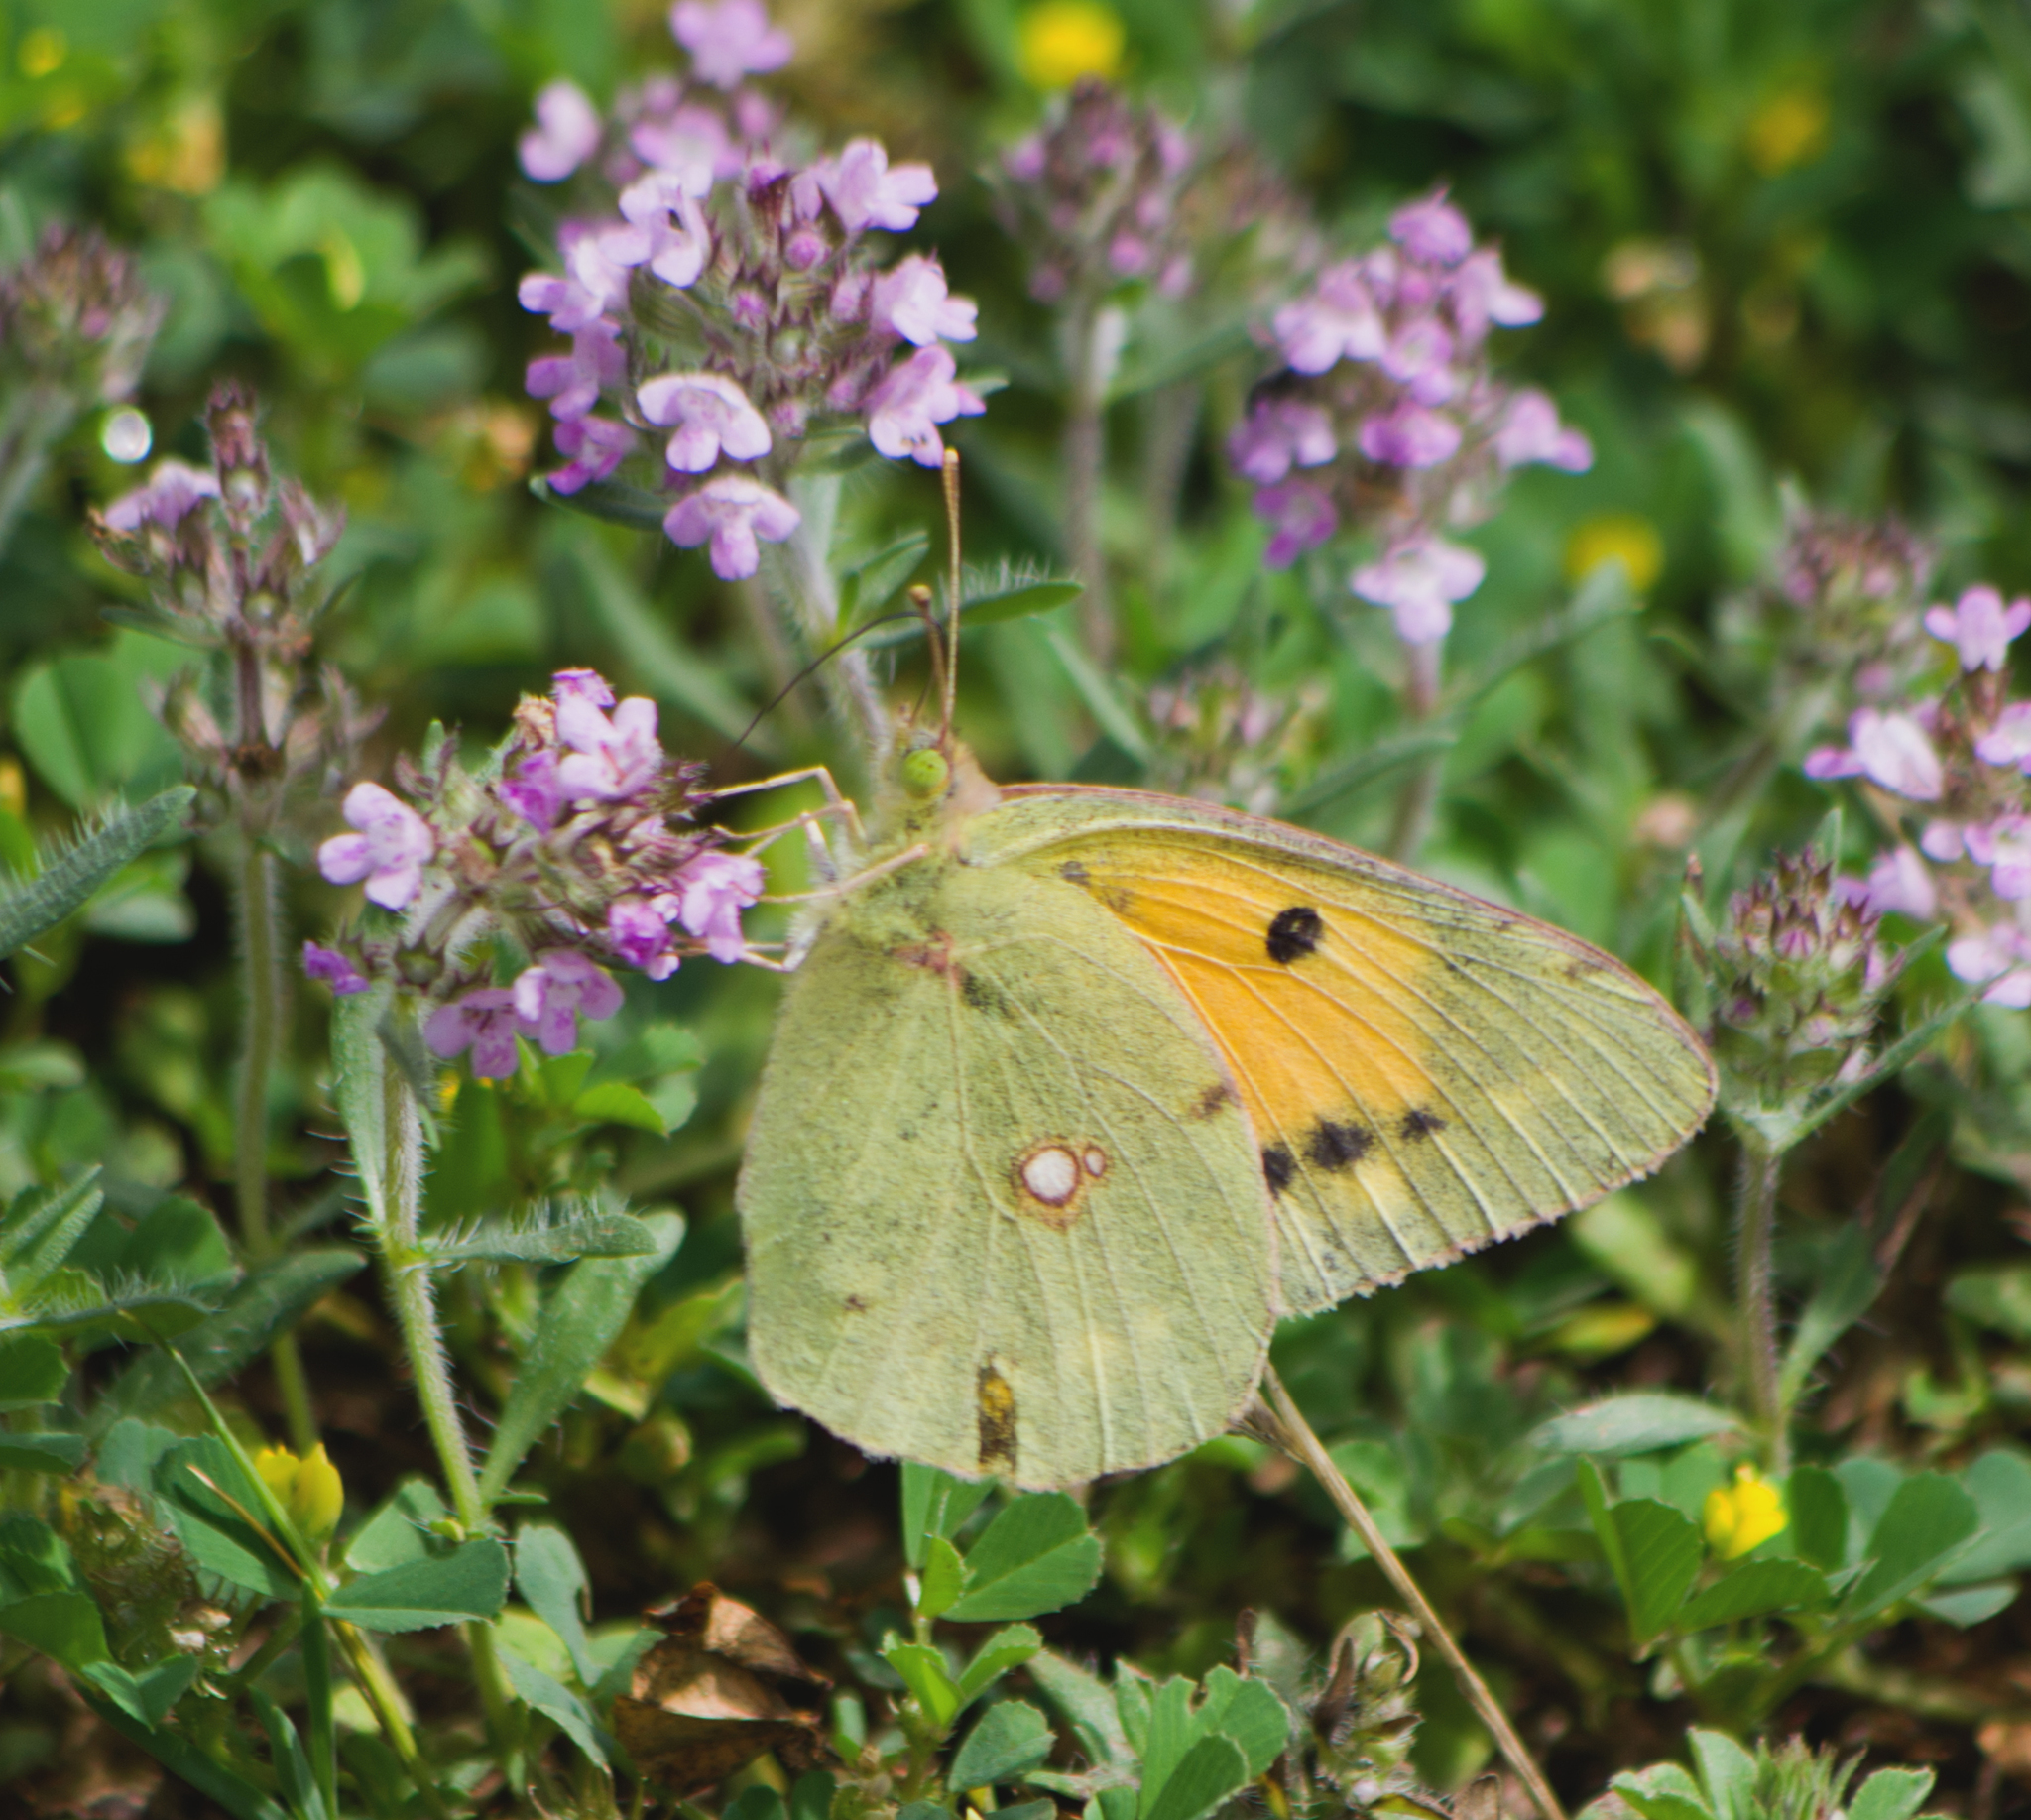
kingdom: Animalia
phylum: Arthropoda
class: Insecta
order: Lepidoptera
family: Pieridae
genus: Colias
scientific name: Colias croceus
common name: Clouded yellow
